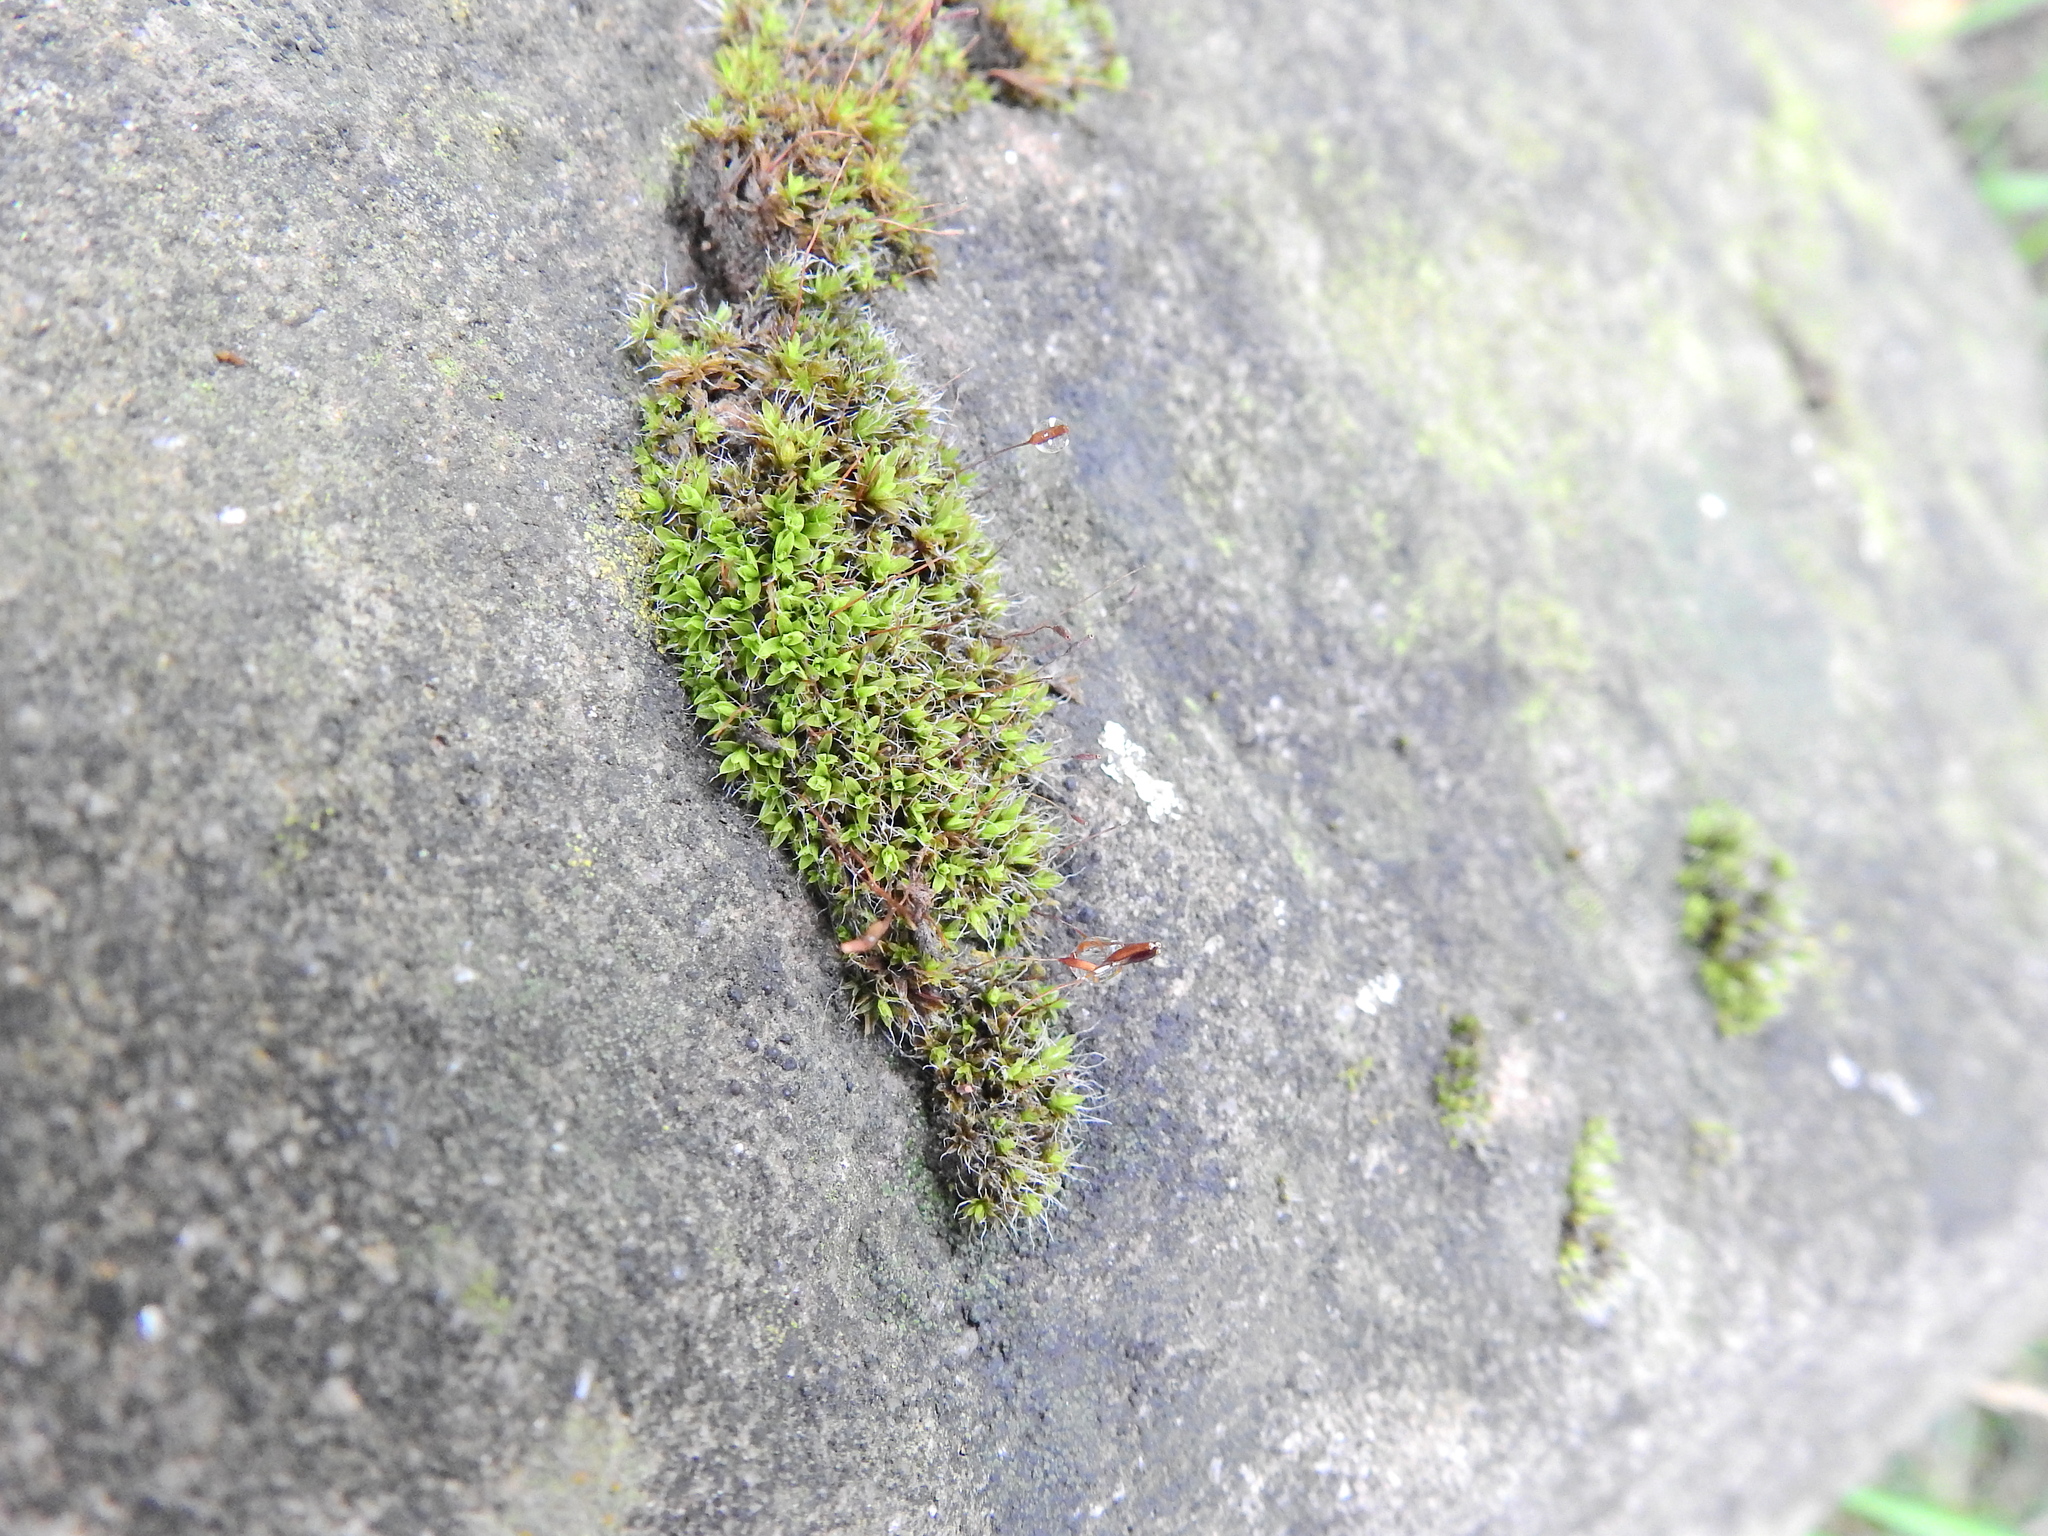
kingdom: Plantae
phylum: Bryophyta
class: Bryopsida
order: Pottiales
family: Pottiaceae
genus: Tortula
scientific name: Tortula muralis
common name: Wall screw-moss
